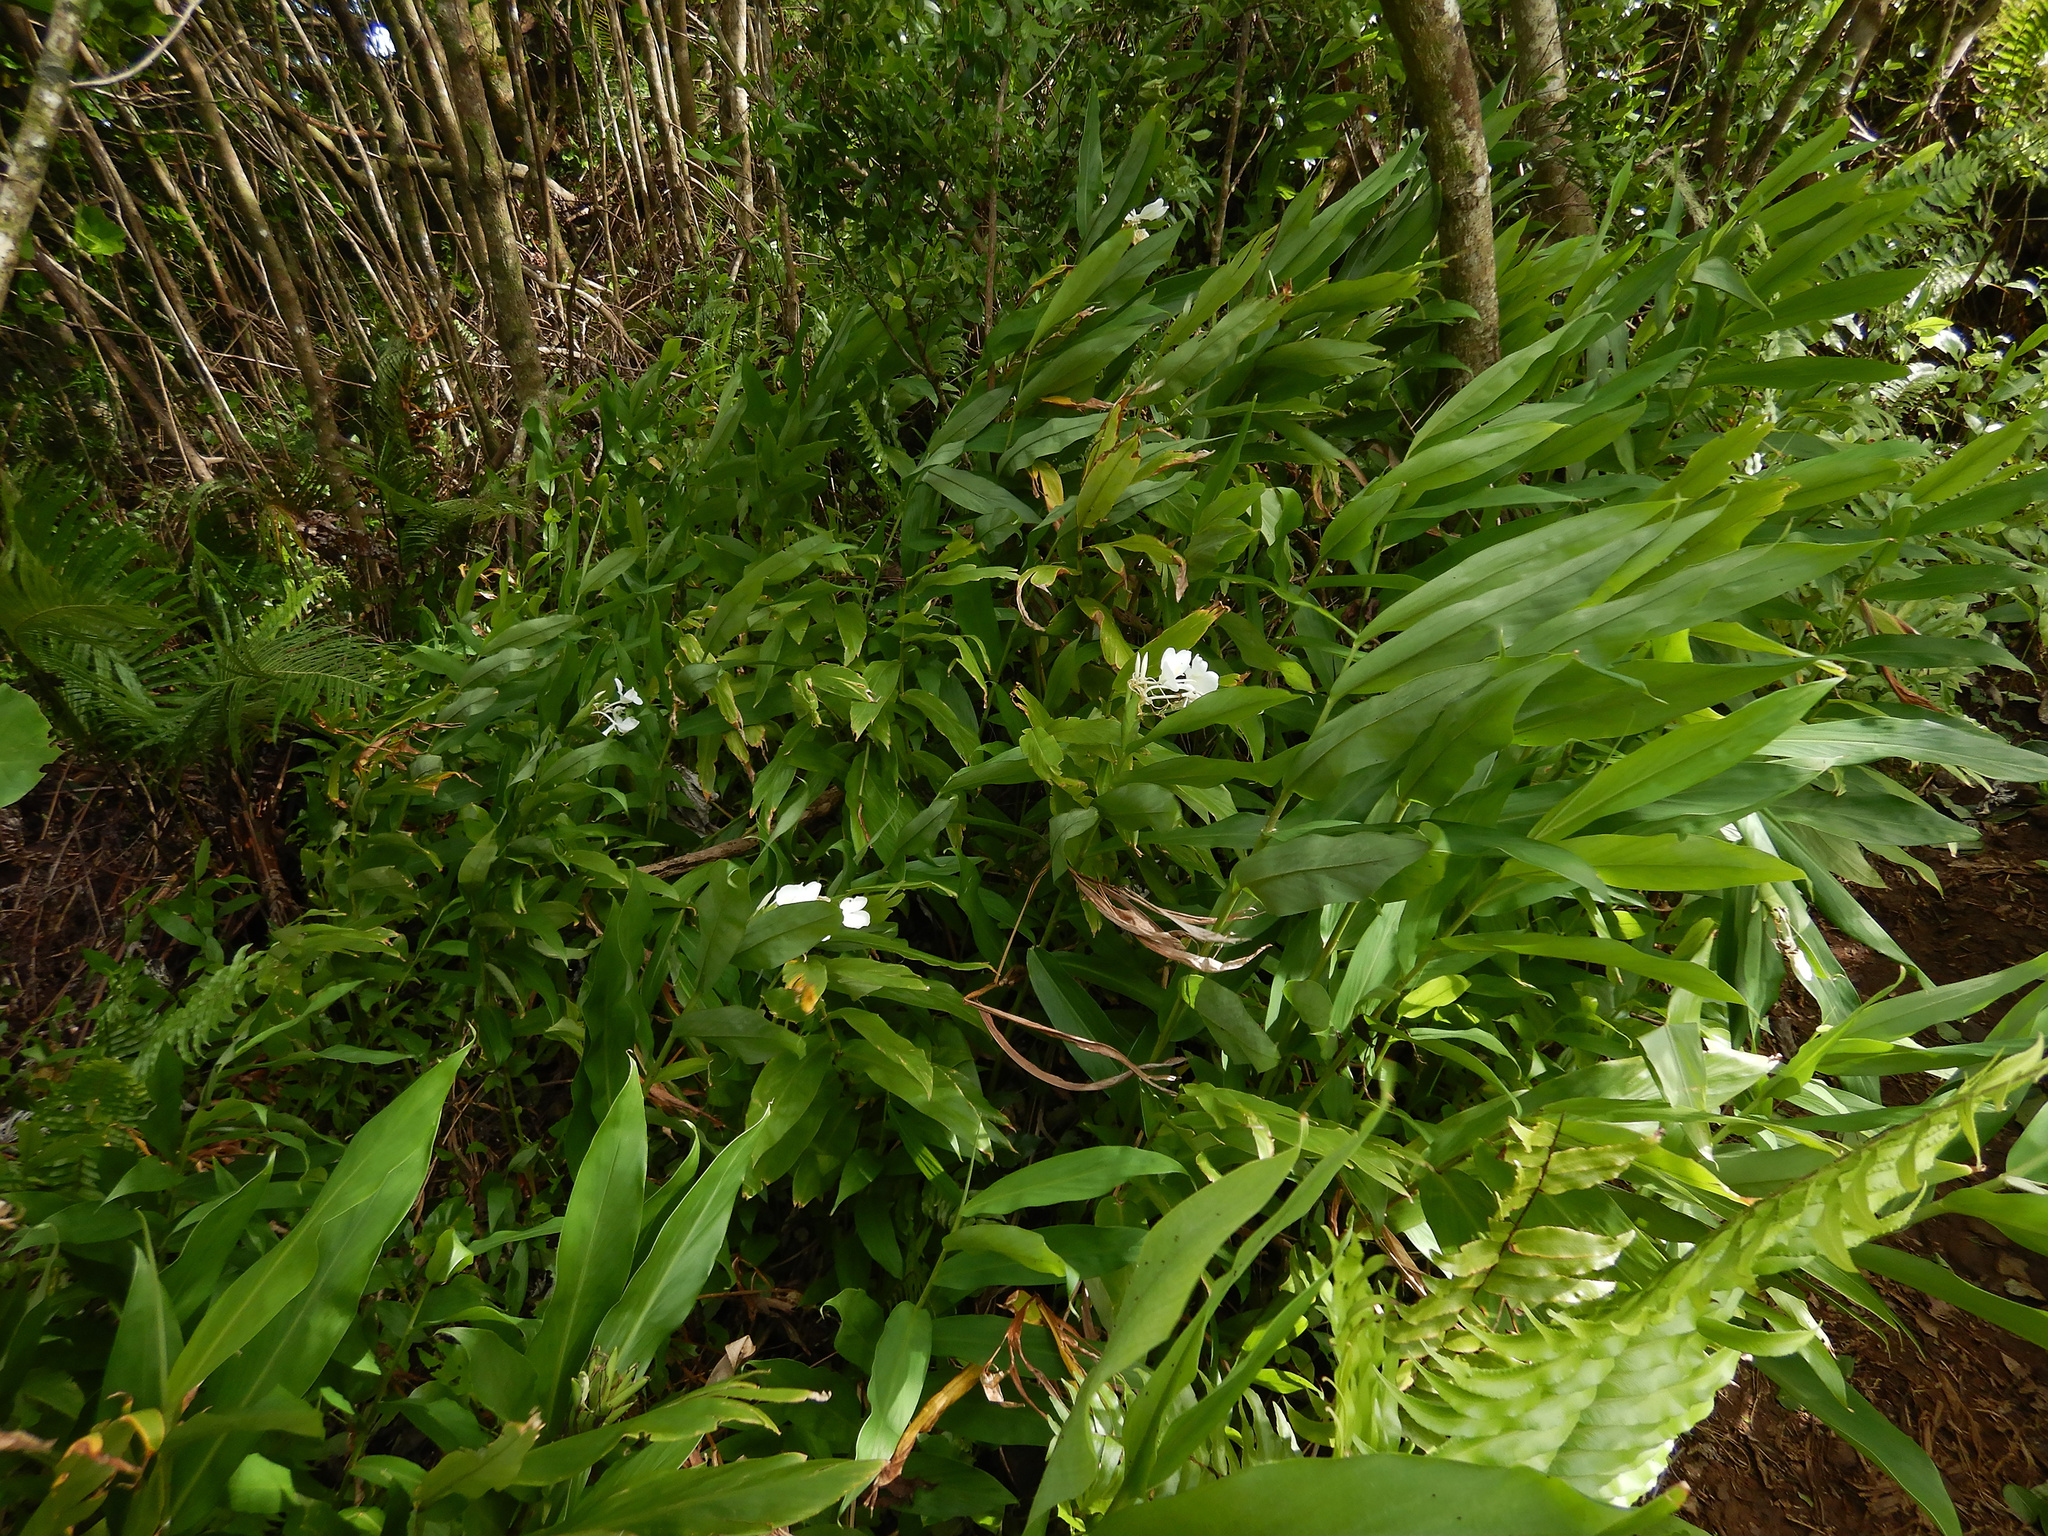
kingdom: Plantae
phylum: Tracheophyta
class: Liliopsida
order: Zingiberales
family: Zingiberaceae
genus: Hedychium
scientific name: Hedychium coronarium
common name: White garland-lily
